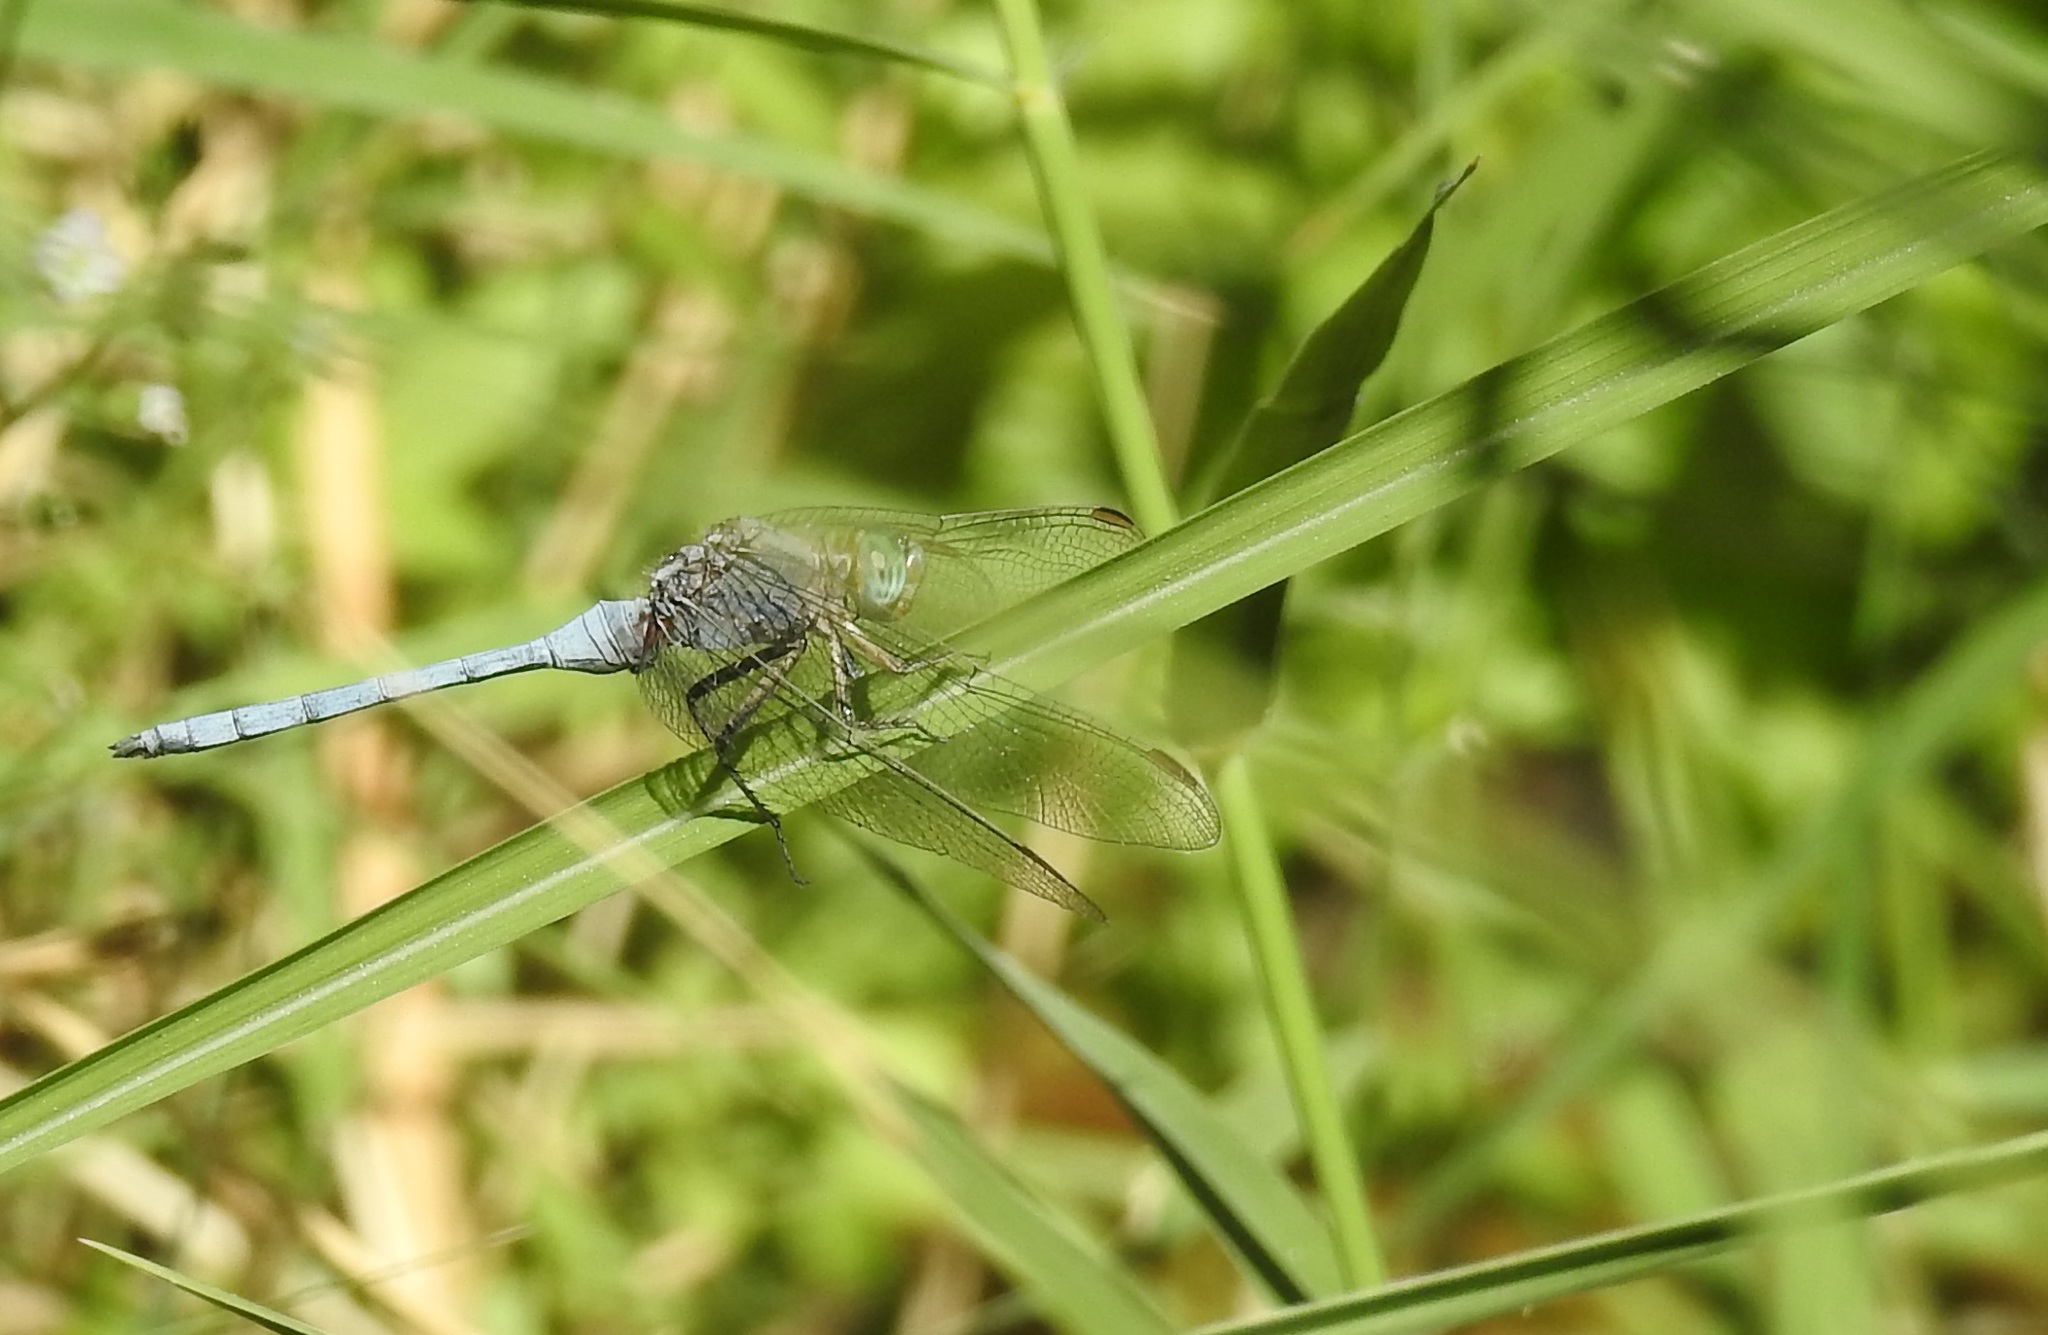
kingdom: Animalia
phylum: Arthropoda
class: Insecta
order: Odonata
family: Libellulidae
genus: Orthetrum
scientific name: Orthetrum chrysostigma
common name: Epaulet skimmer
